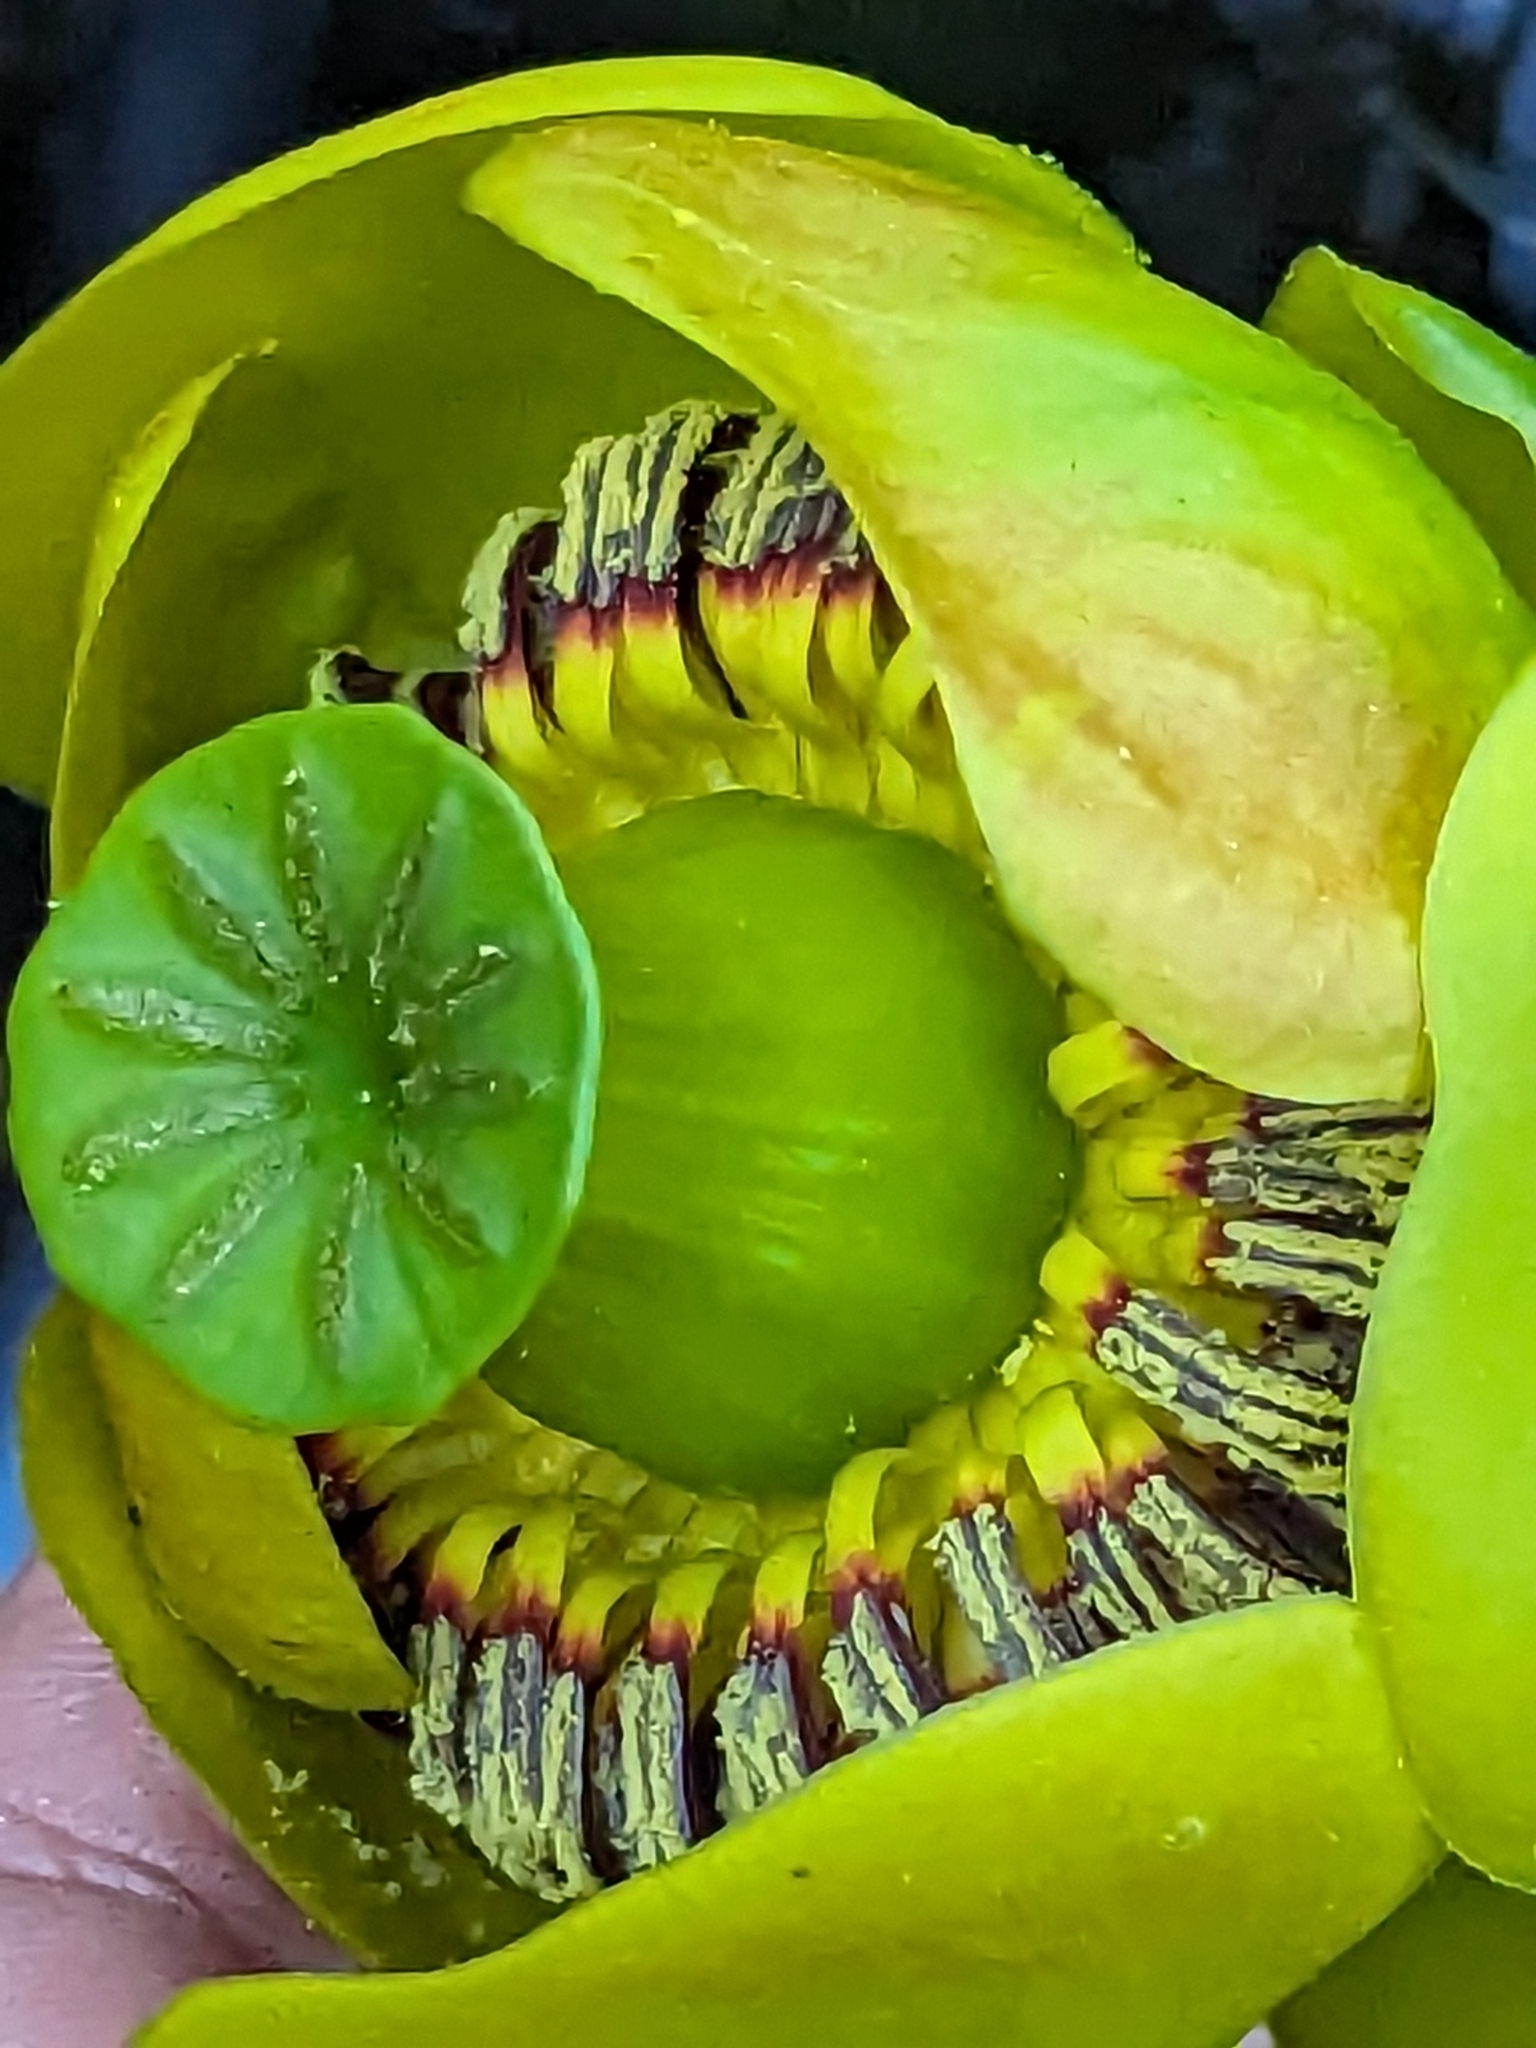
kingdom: Plantae
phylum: Tracheophyta
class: Magnoliopsida
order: Nymphaeales
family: Nymphaeaceae
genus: Nuphar
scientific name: Nuphar polysepala
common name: Rocky mountain cow-lily
